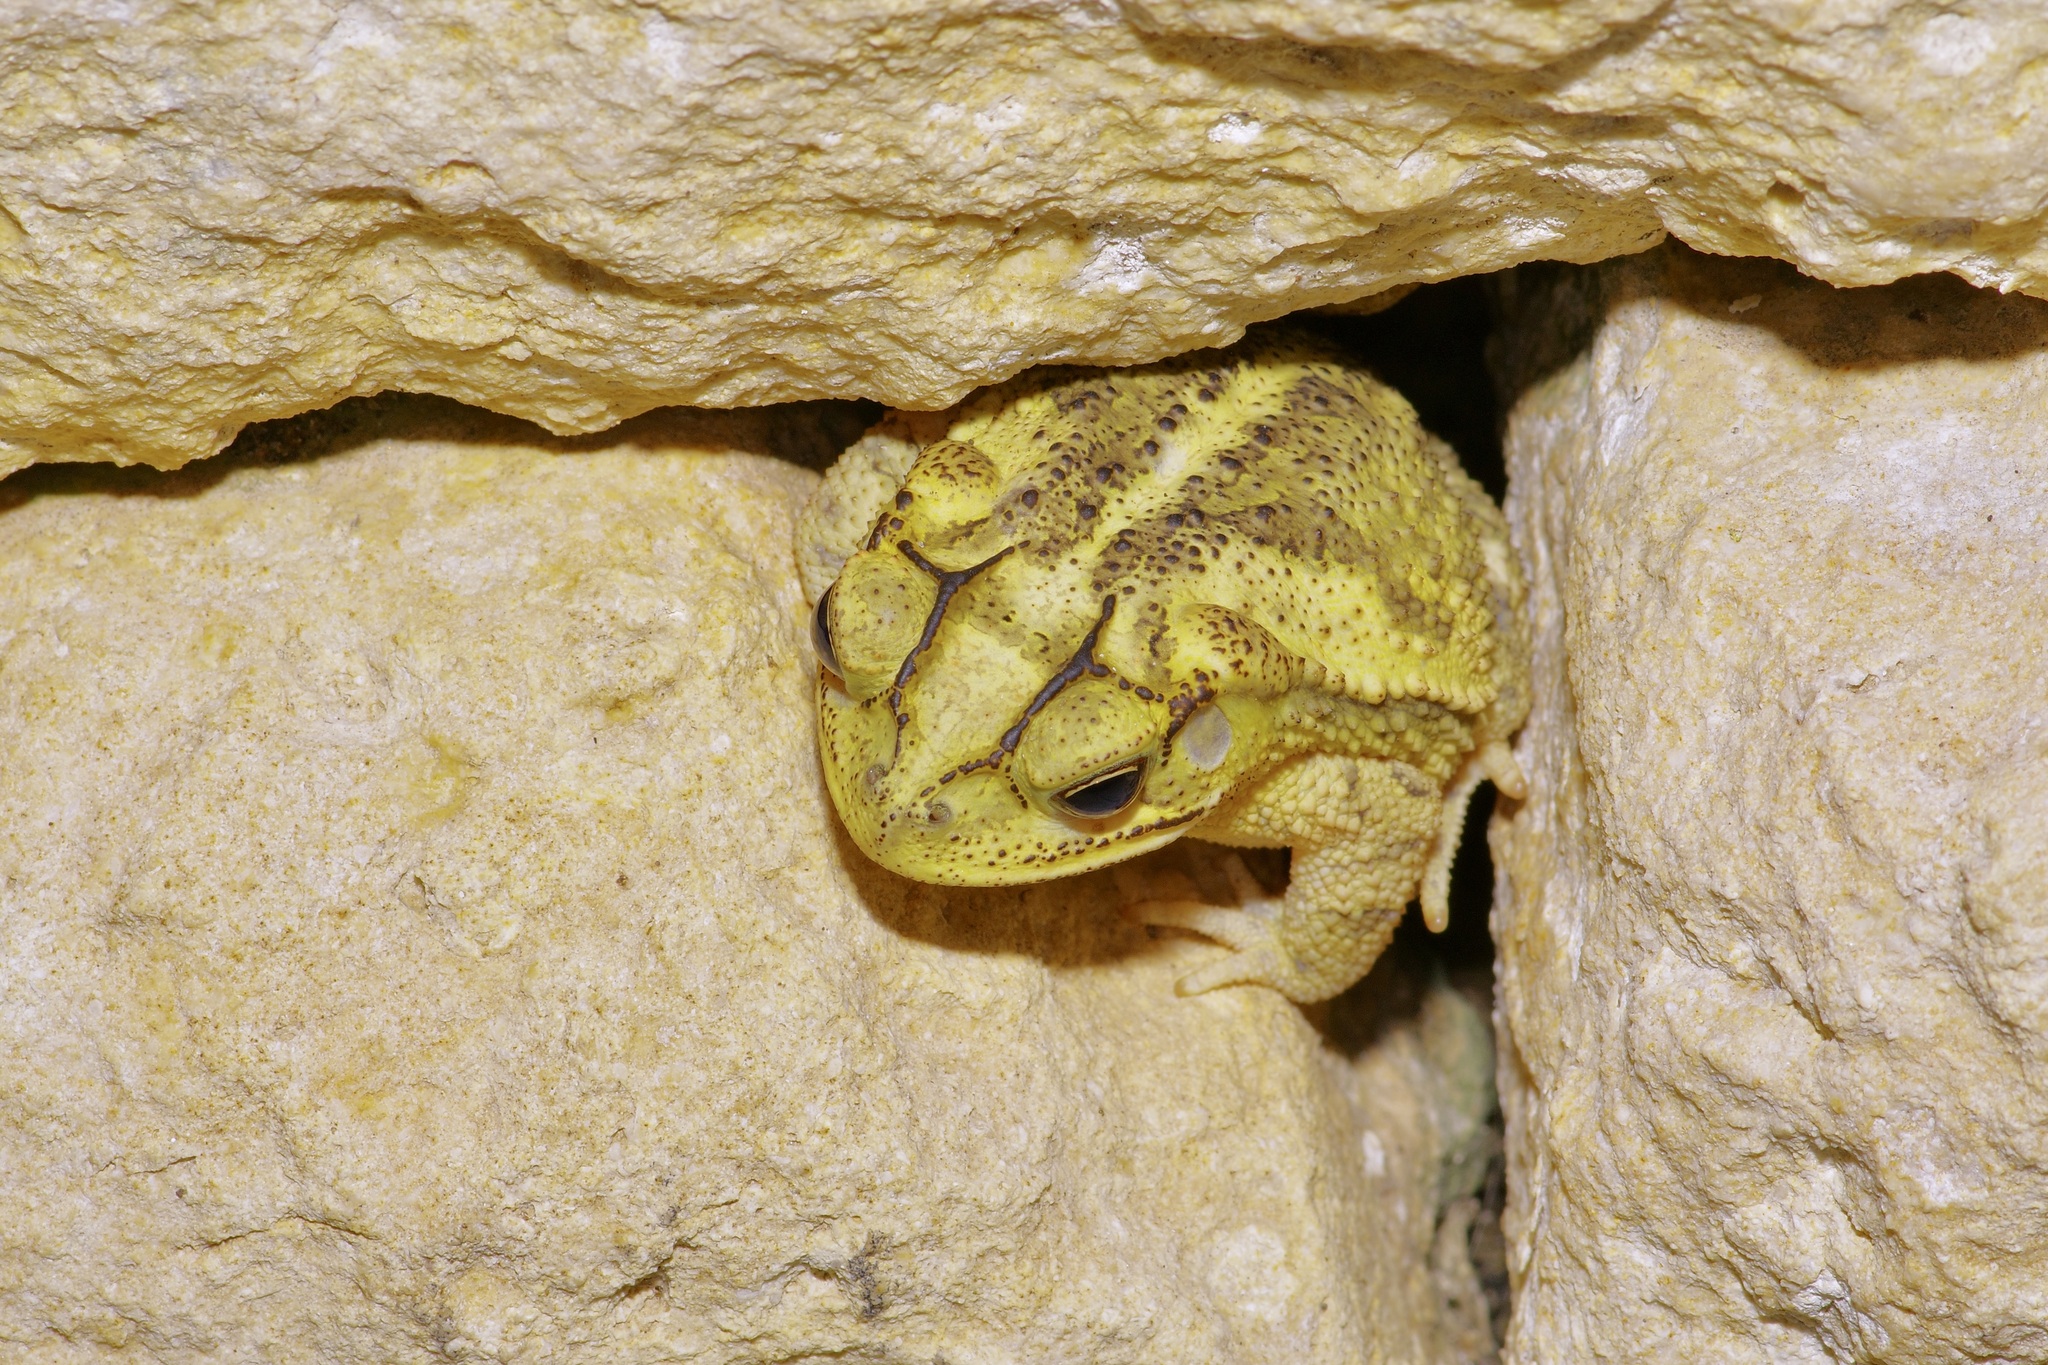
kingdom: Animalia
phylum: Chordata
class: Amphibia
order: Anura
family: Bufonidae
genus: Incilius
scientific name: Incilius nebulifer
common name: Gulf coast toad
